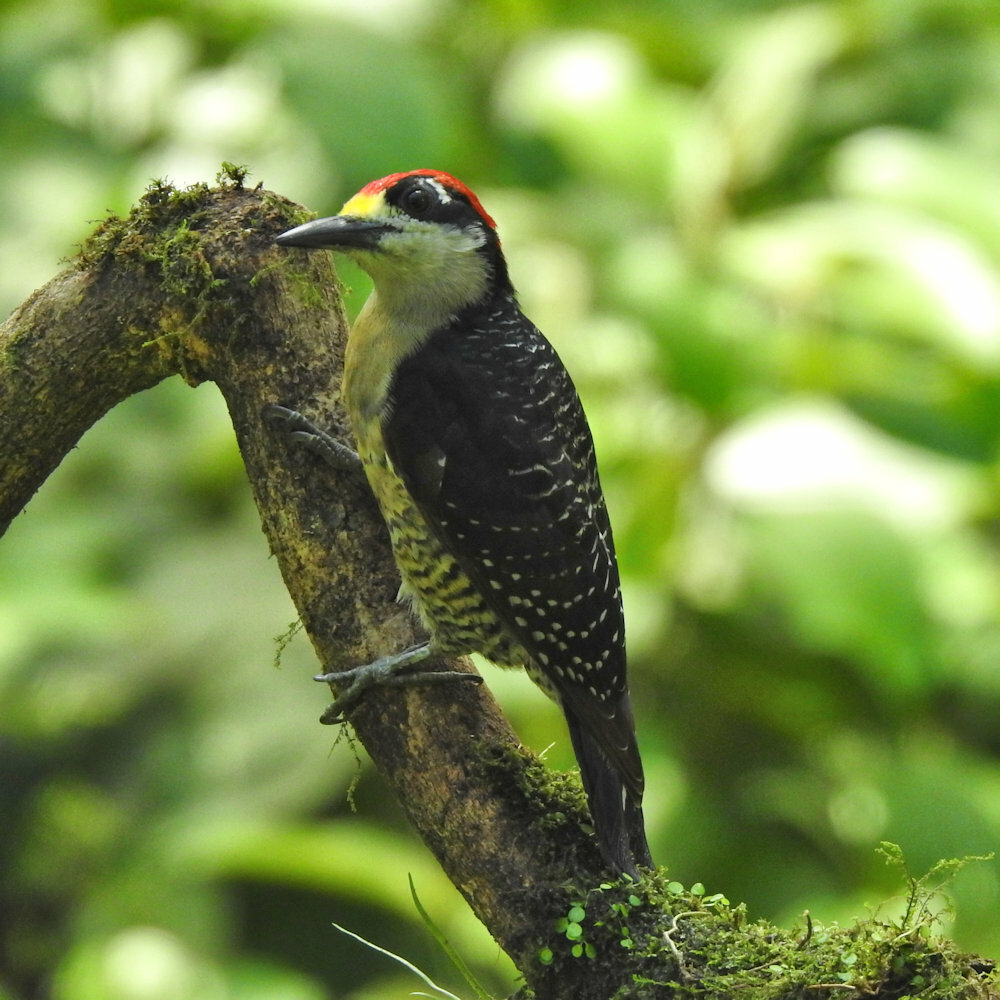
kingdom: Animalia
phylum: Chordata
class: Aves
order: Piciformes
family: Picidae
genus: Melanerpes
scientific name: Melanerpes pucherani
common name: Black-cheeked woodpecker
